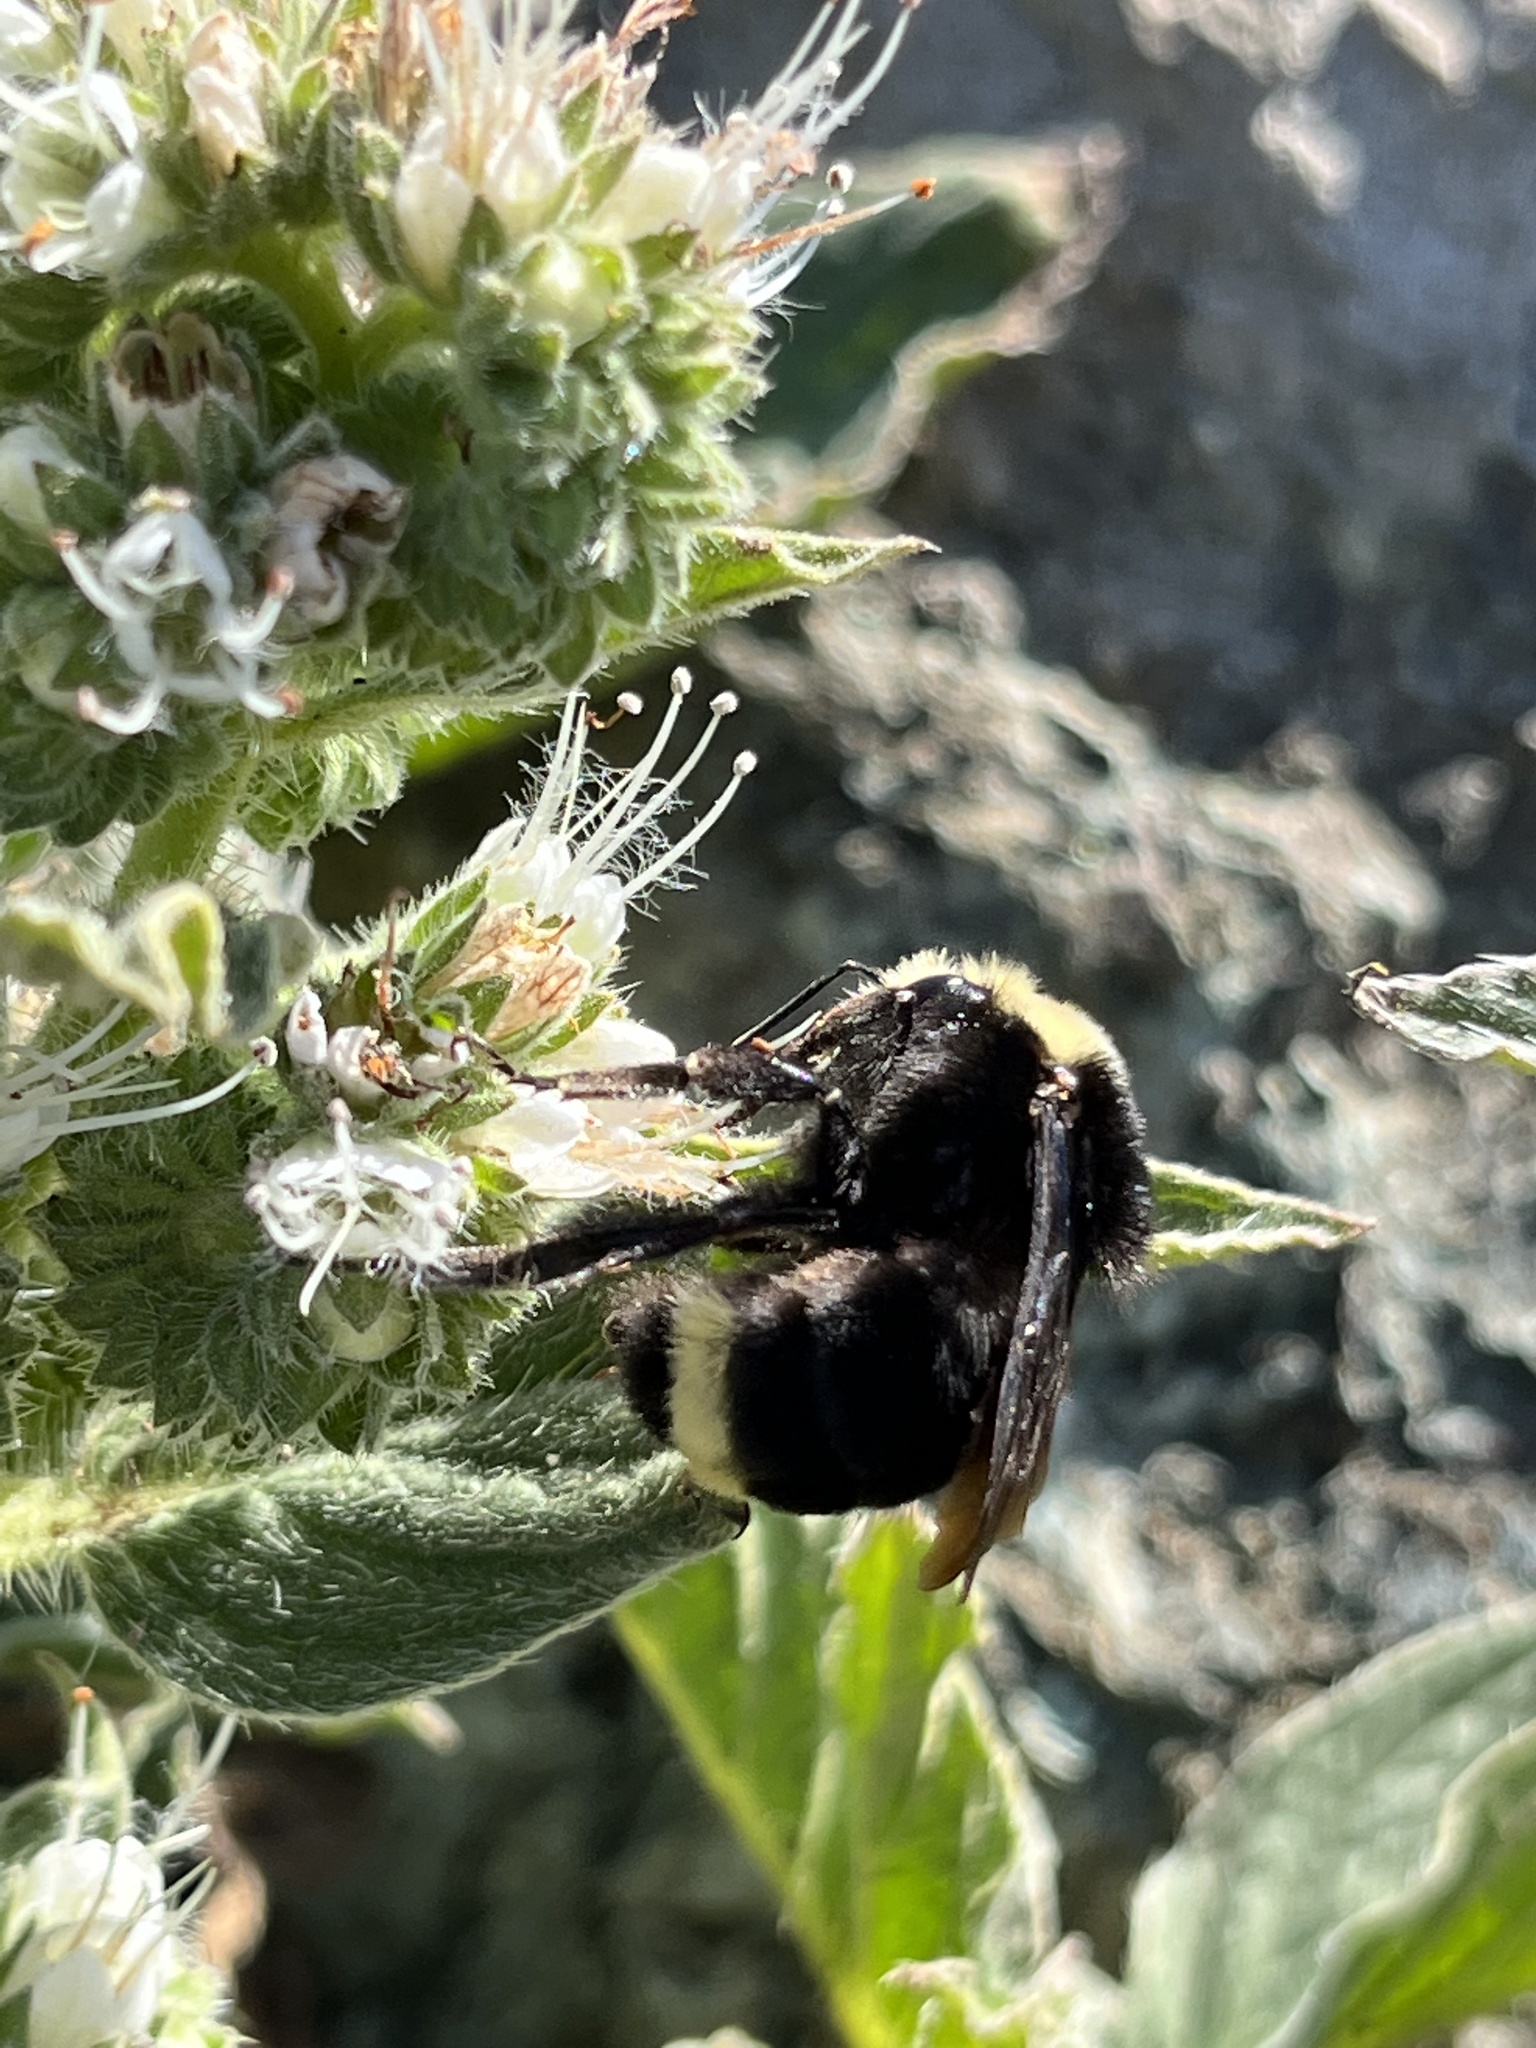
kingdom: Animalia
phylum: Arthropoda
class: Insecta
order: Hymenoptera
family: Apidae
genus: Bombus
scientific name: Bombus vosnesenskii
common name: Vosnesensky bumble bee
